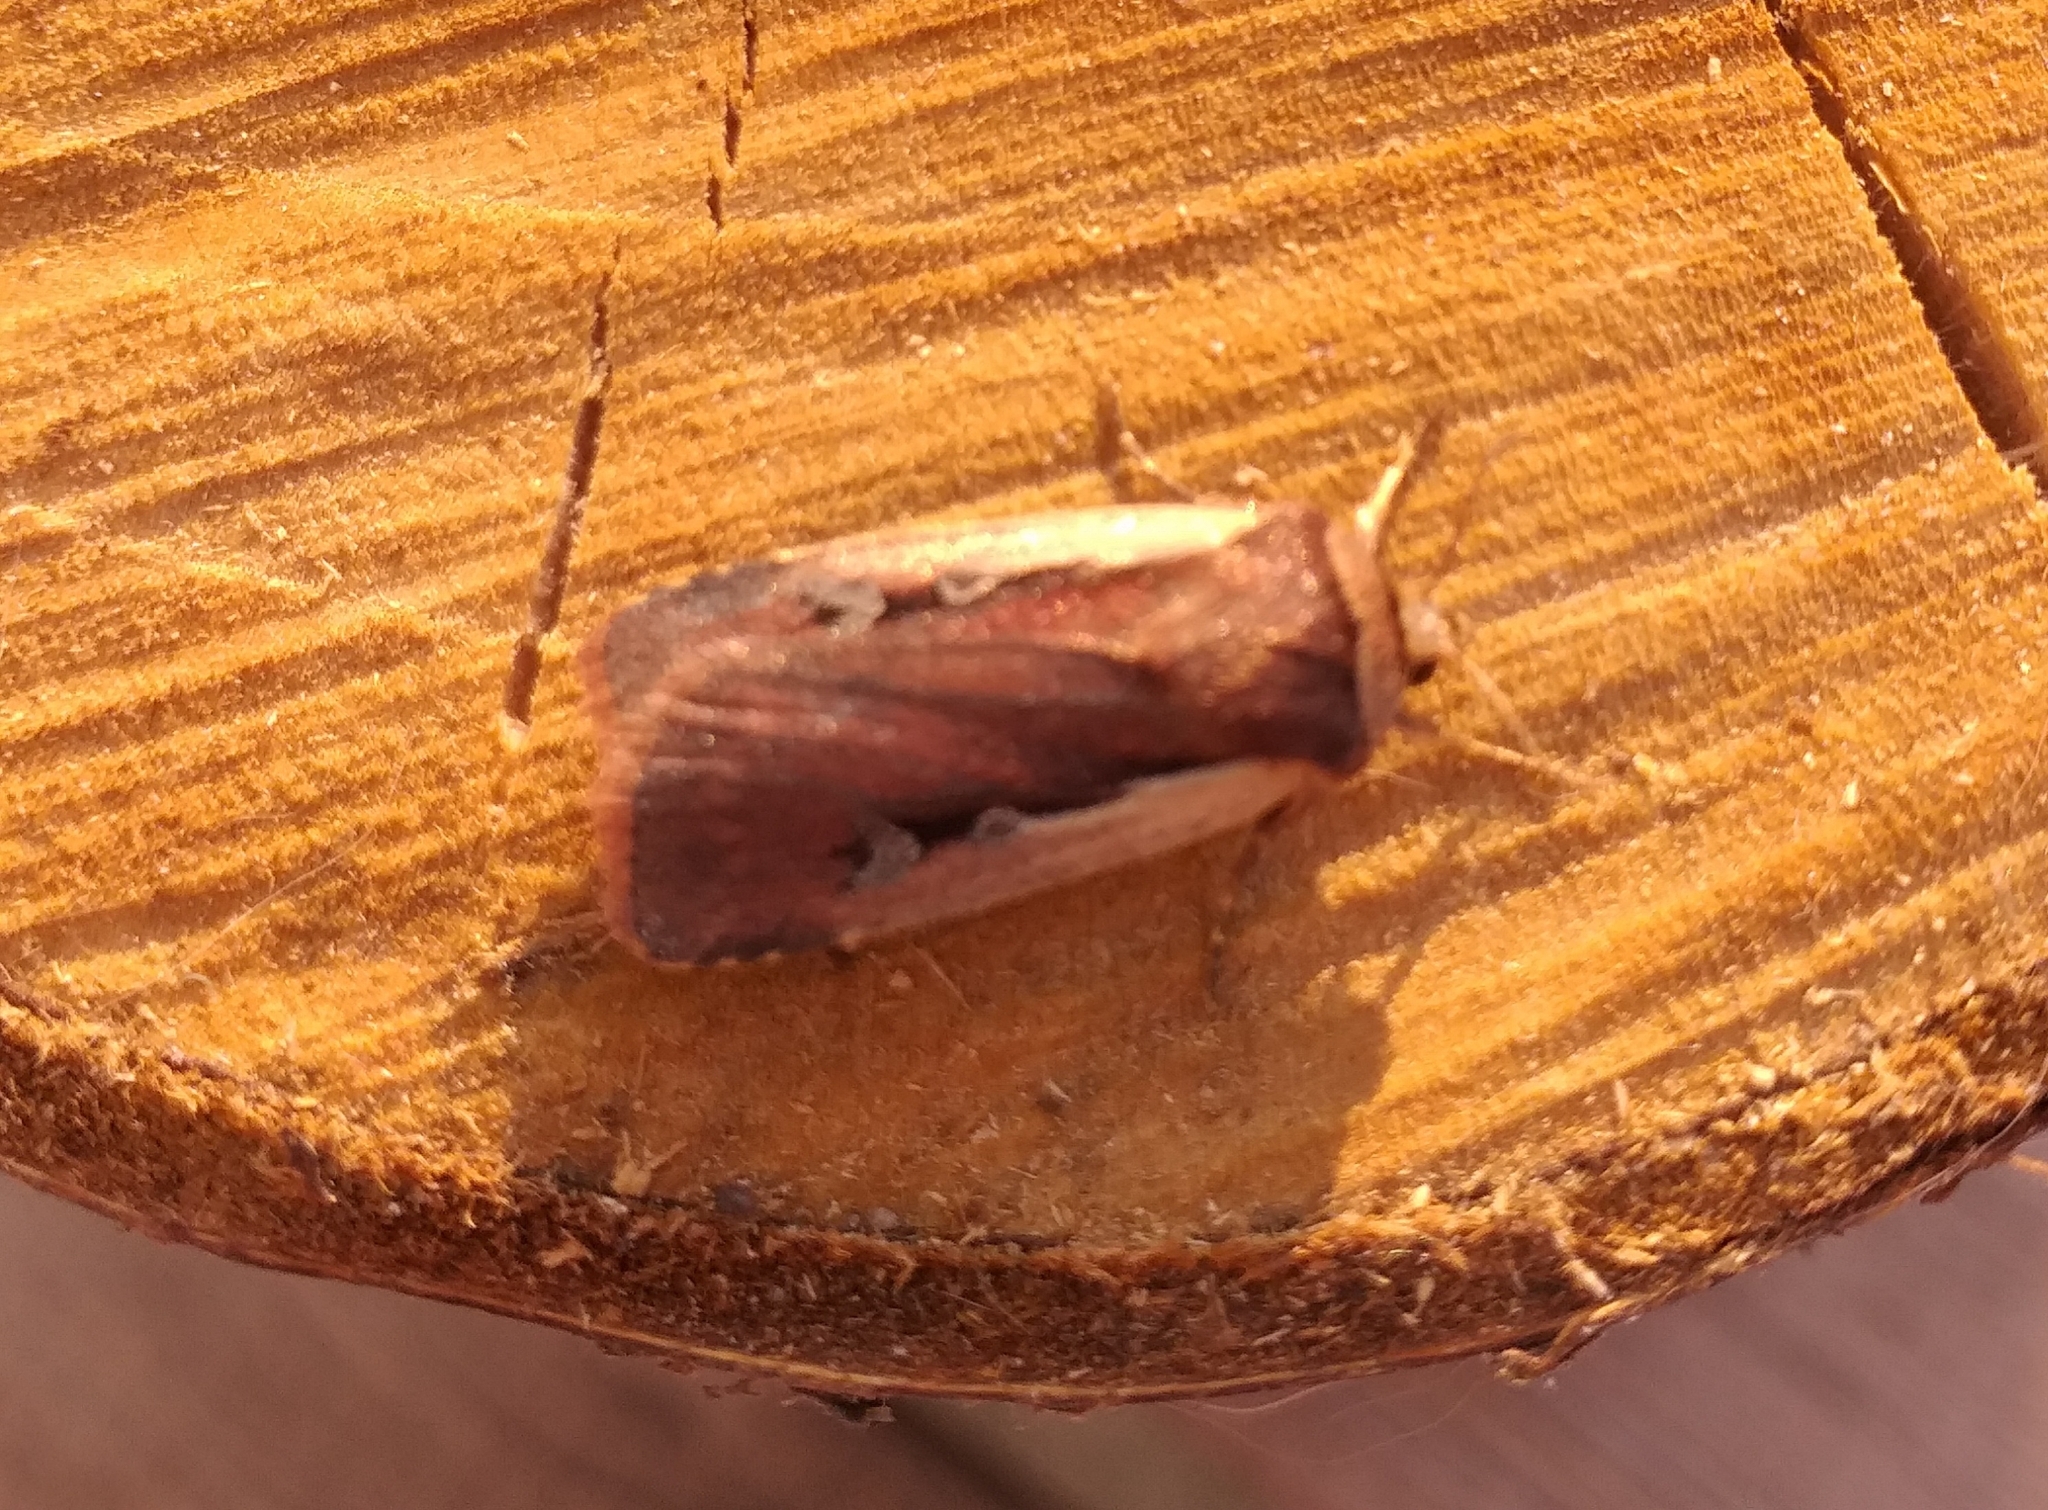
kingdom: Animalia
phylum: Arthropoda
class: Insecta
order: Lepidoptera
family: Noctuidae
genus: Ochropleura
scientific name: Ochropleura plecta
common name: Flame shoulder
